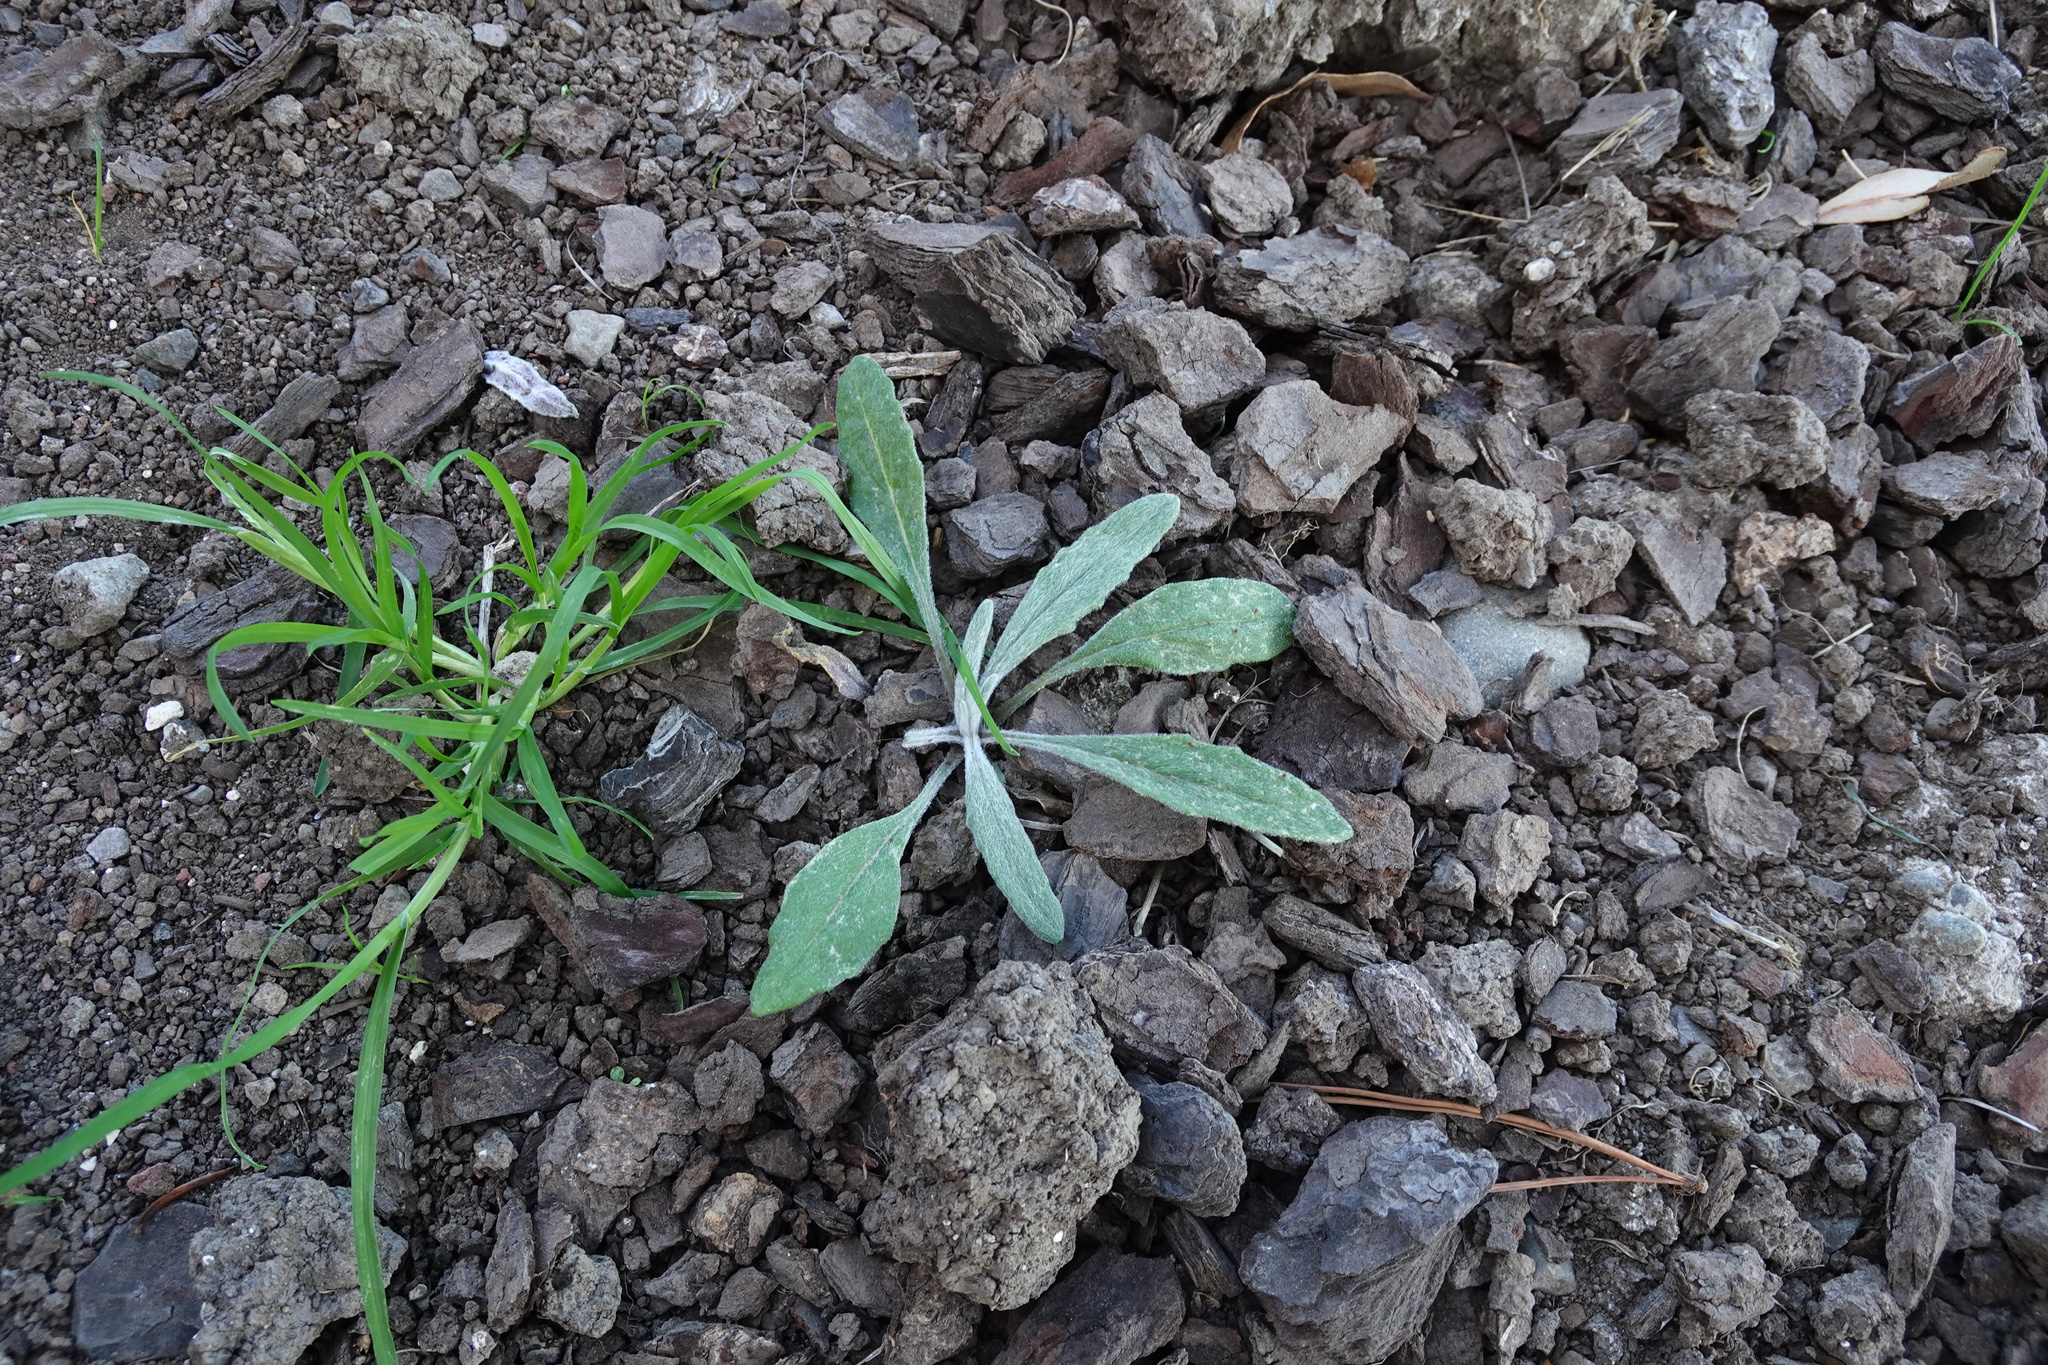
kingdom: Plantae
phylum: Tracheophyta
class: Magnoliopsida
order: Asterales
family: Asteraceae
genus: Senecio
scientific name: Senecio quadridentatus
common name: Cotton fireweed
